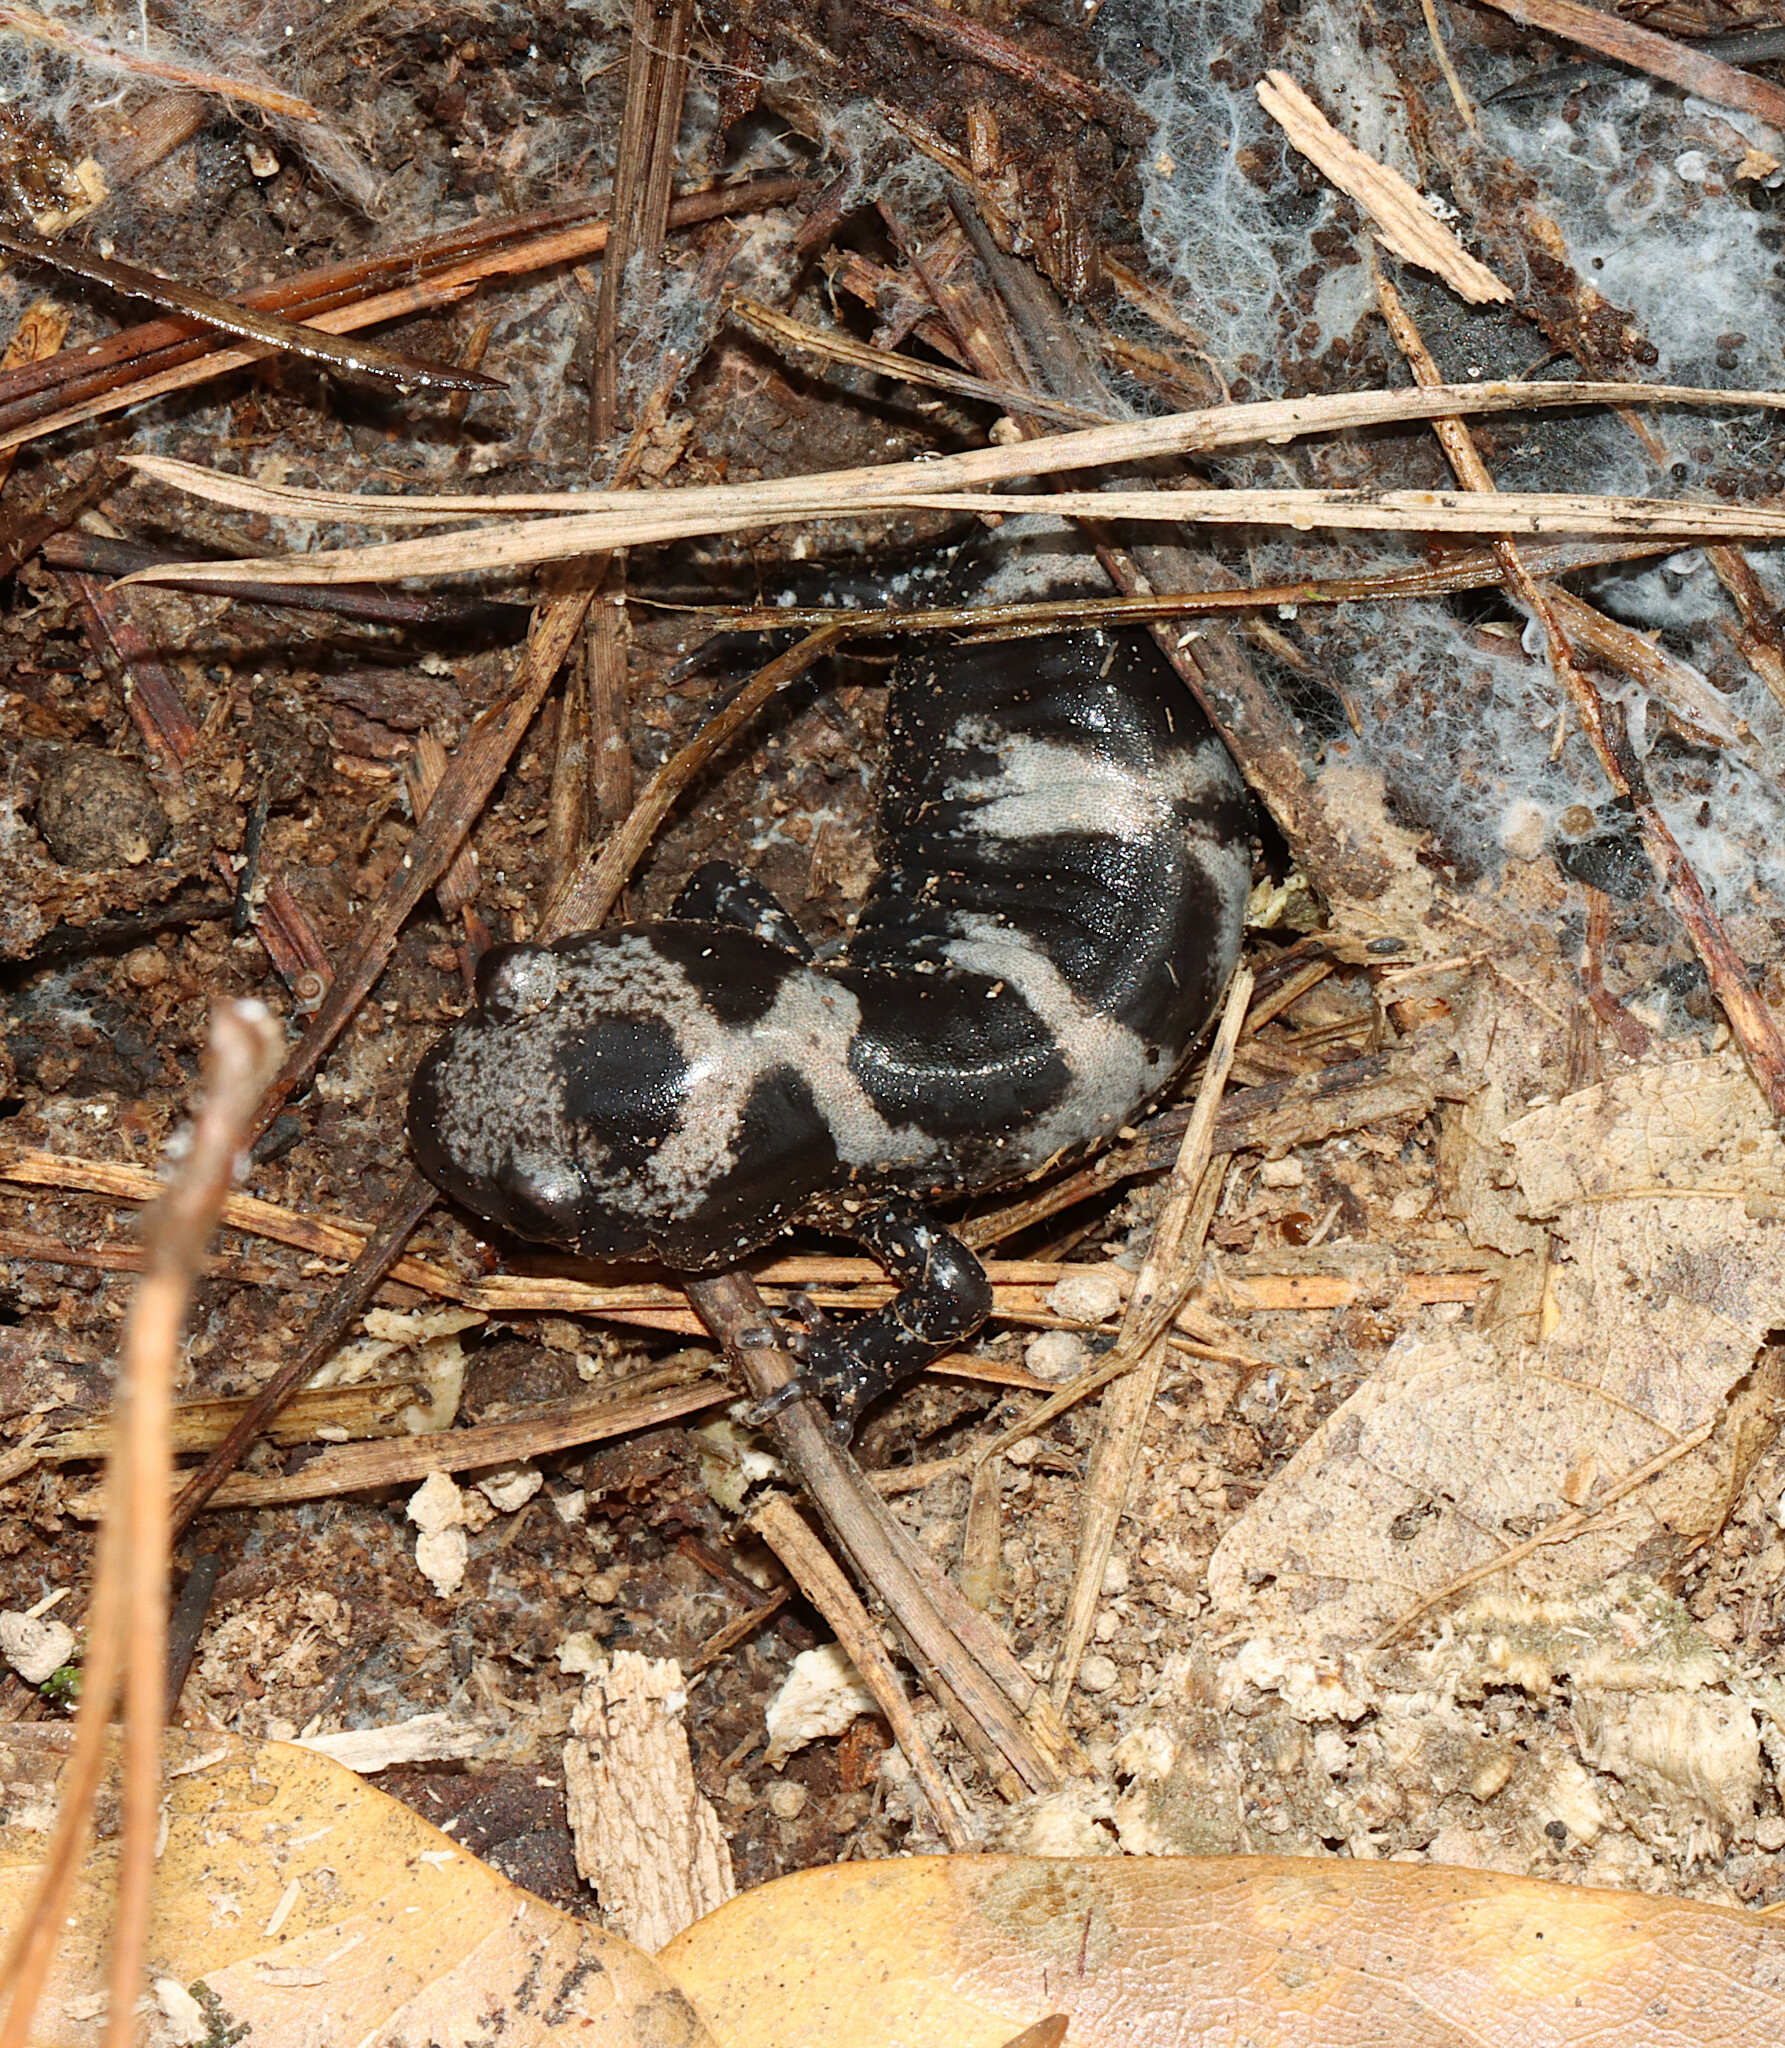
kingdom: Animalia
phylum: Chordata
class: Amphibia
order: Caudata
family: Ambystomatidae
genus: Ambystoma
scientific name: Ambystoma opacum
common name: Marbled salamander
